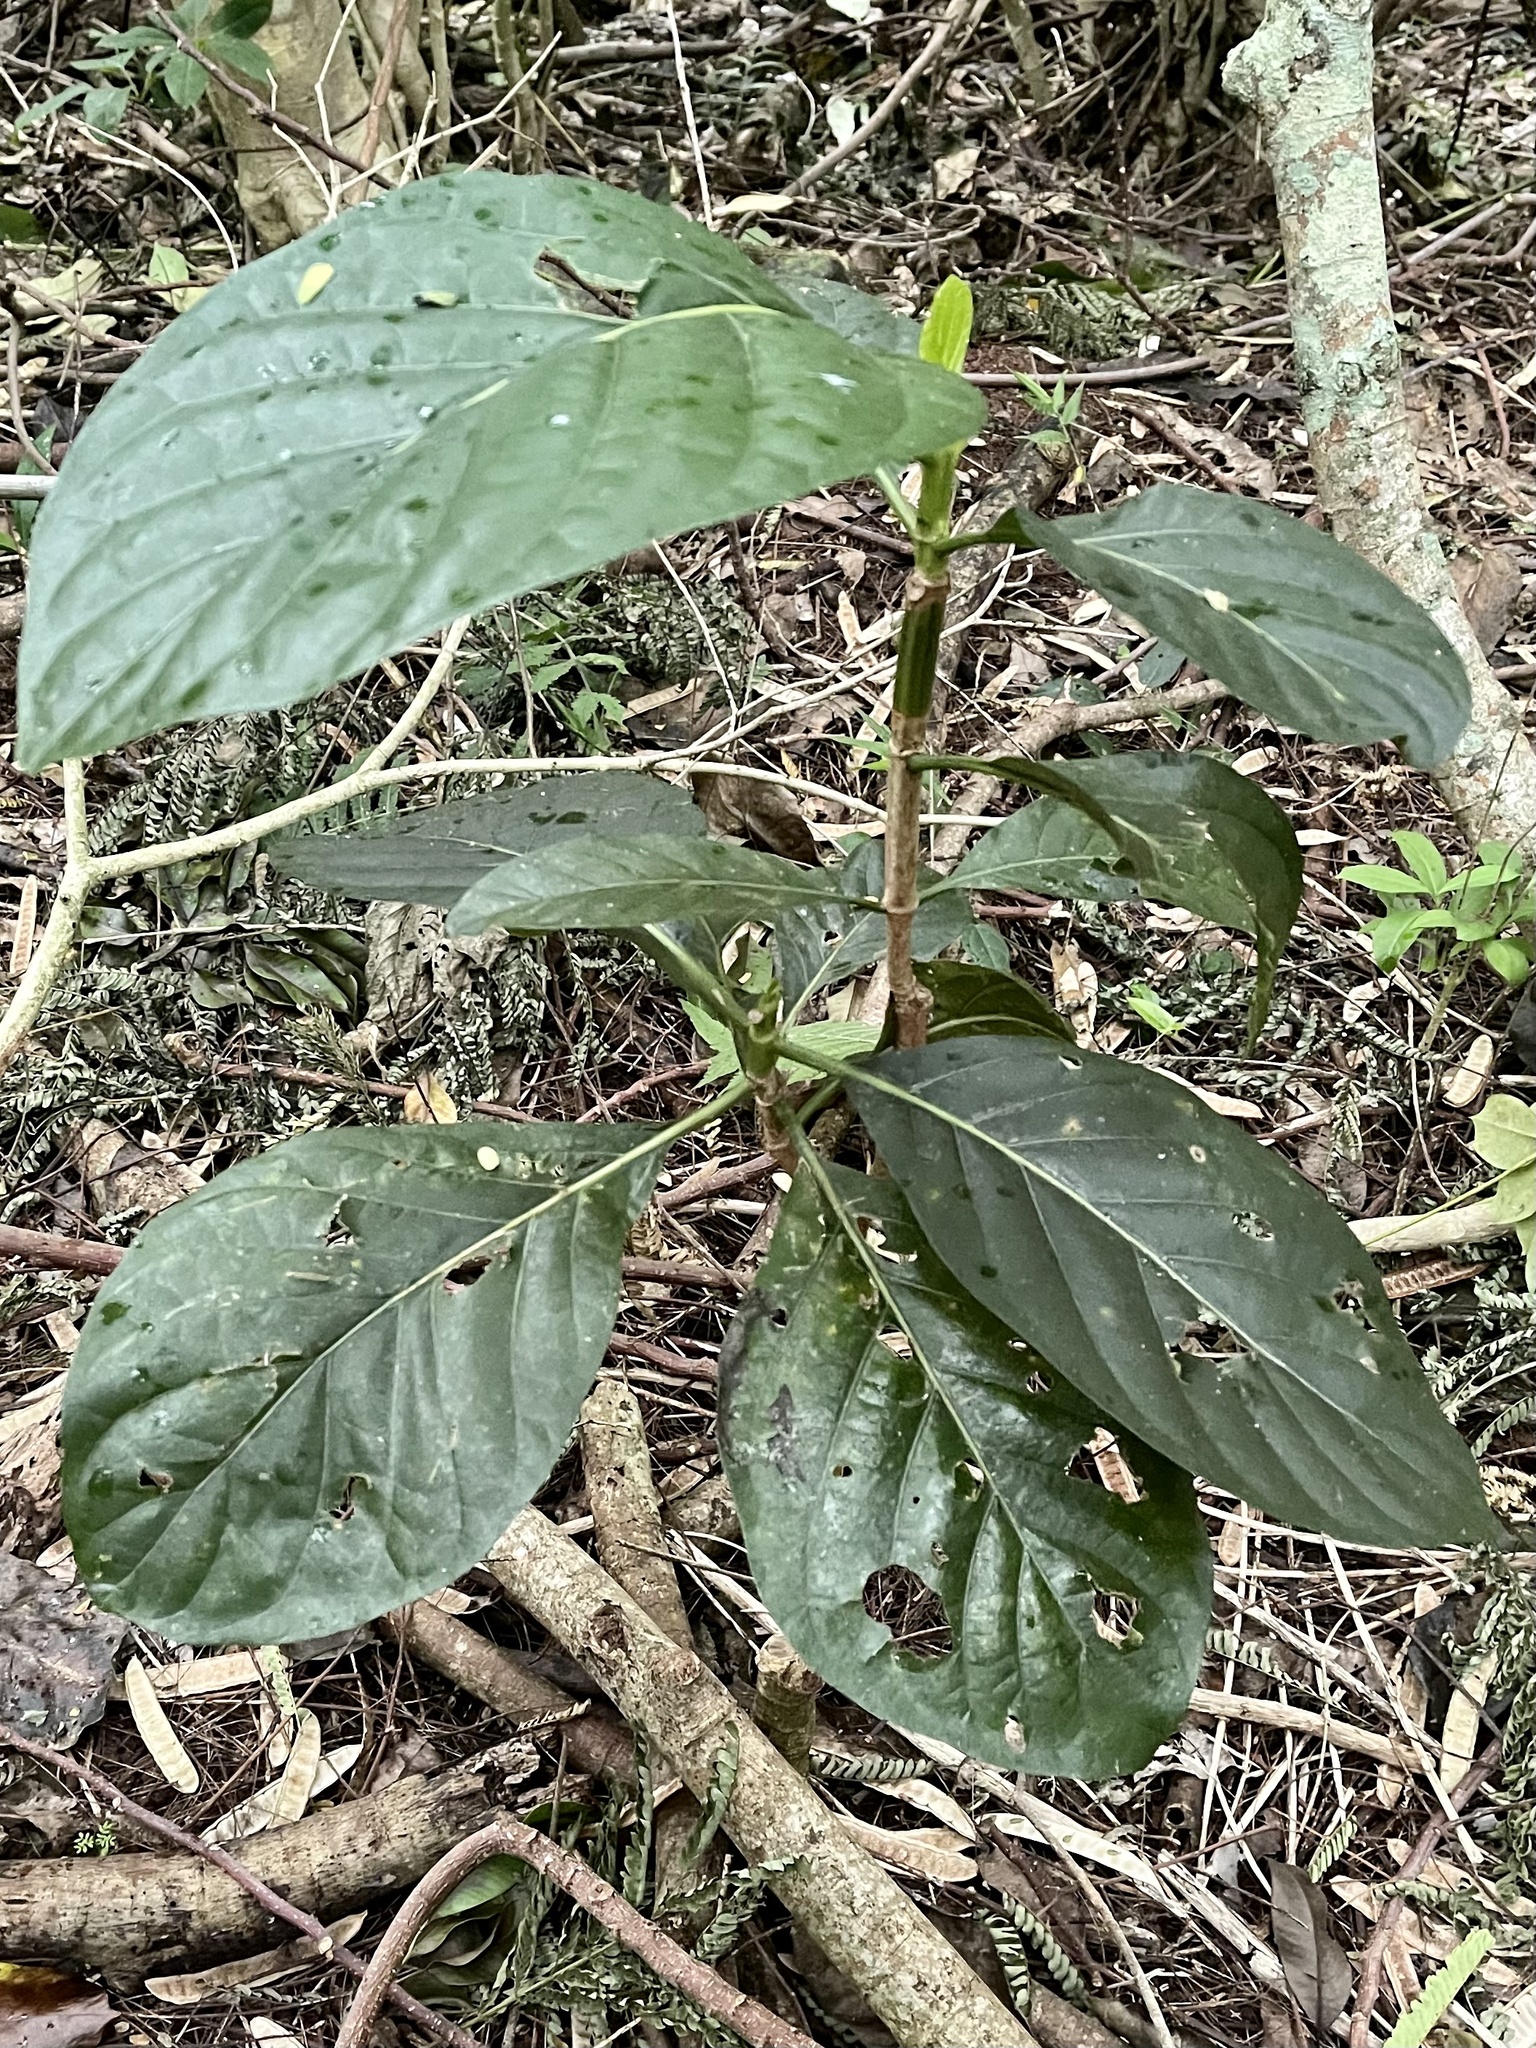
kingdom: Plantae
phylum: Tracheophyta
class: Magnoliopsida
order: Gentianales
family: Rubiaceae
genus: Morinda
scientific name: Morinda citrifolia
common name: Indian-mulberry
